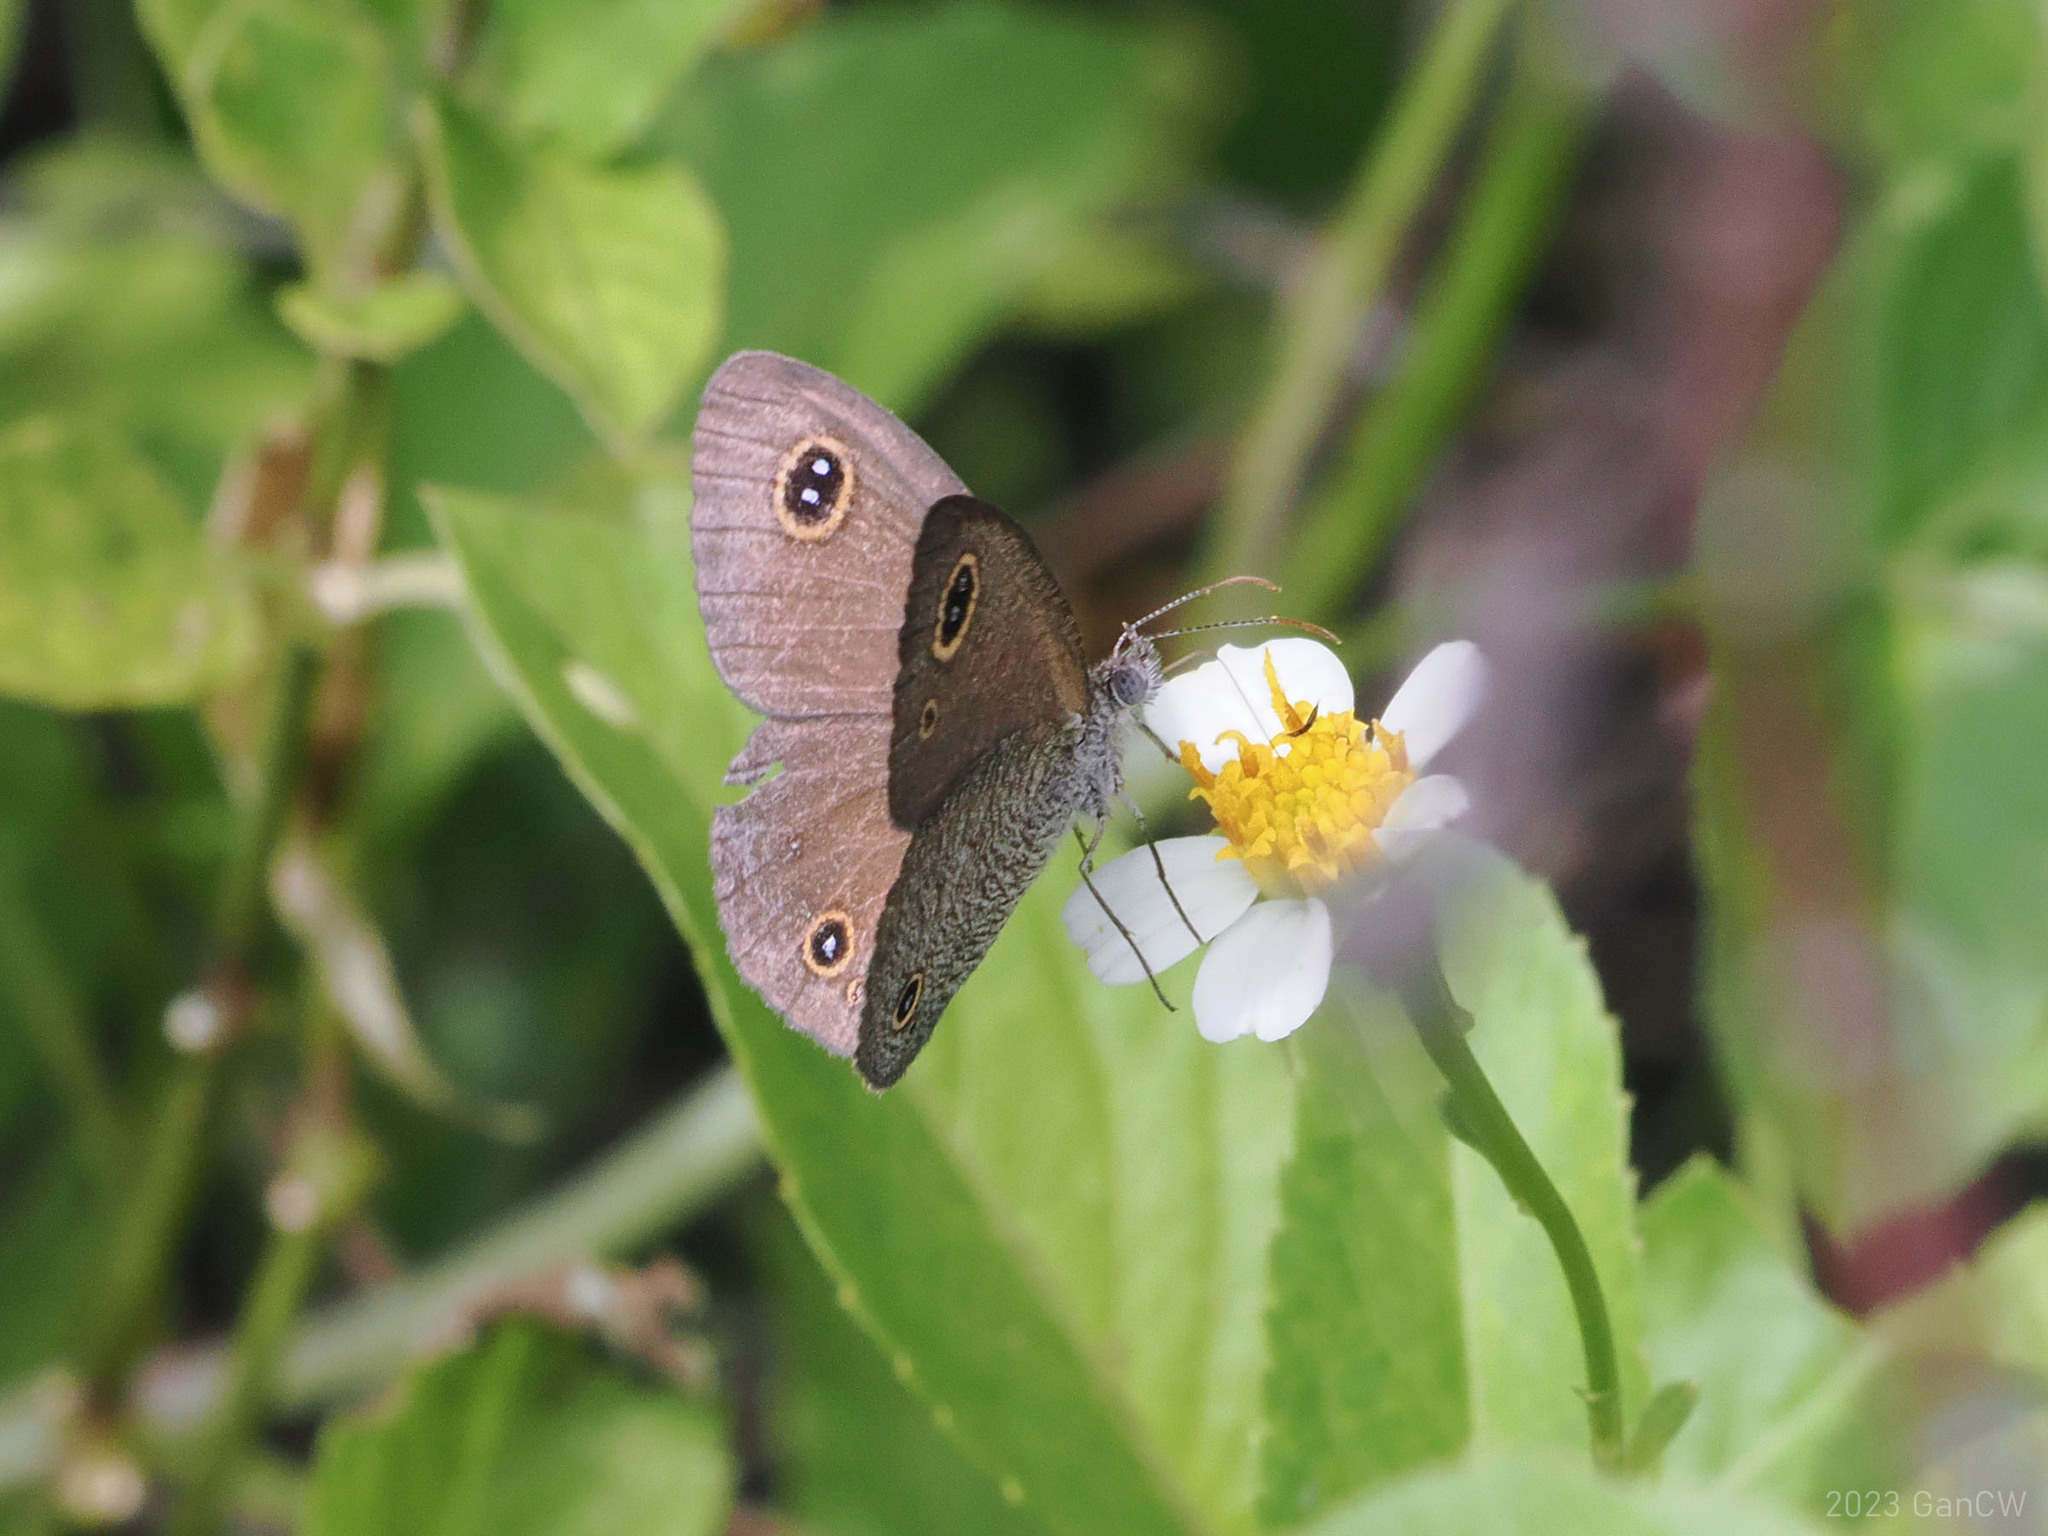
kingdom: Animalia
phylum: Arthropoda
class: Insecta
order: Lepidoptera
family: Nymphalidae
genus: Ypthima
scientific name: Ypthima arctous
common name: Dusky knight
